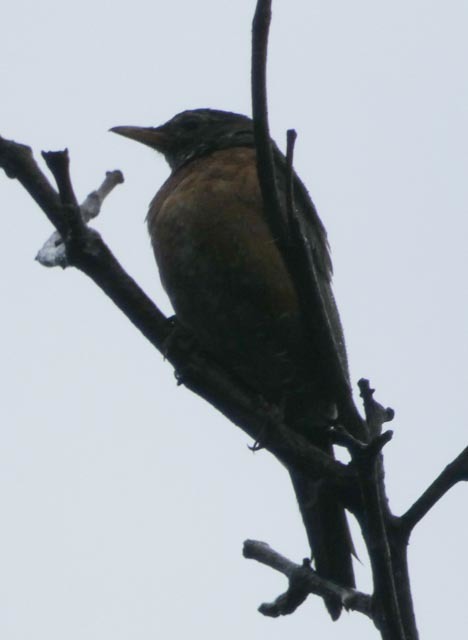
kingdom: Animalia
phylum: Chordata
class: Aves
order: Passeriformes
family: Turdidae
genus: Turdus
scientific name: Turdus migratorius
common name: American robin
